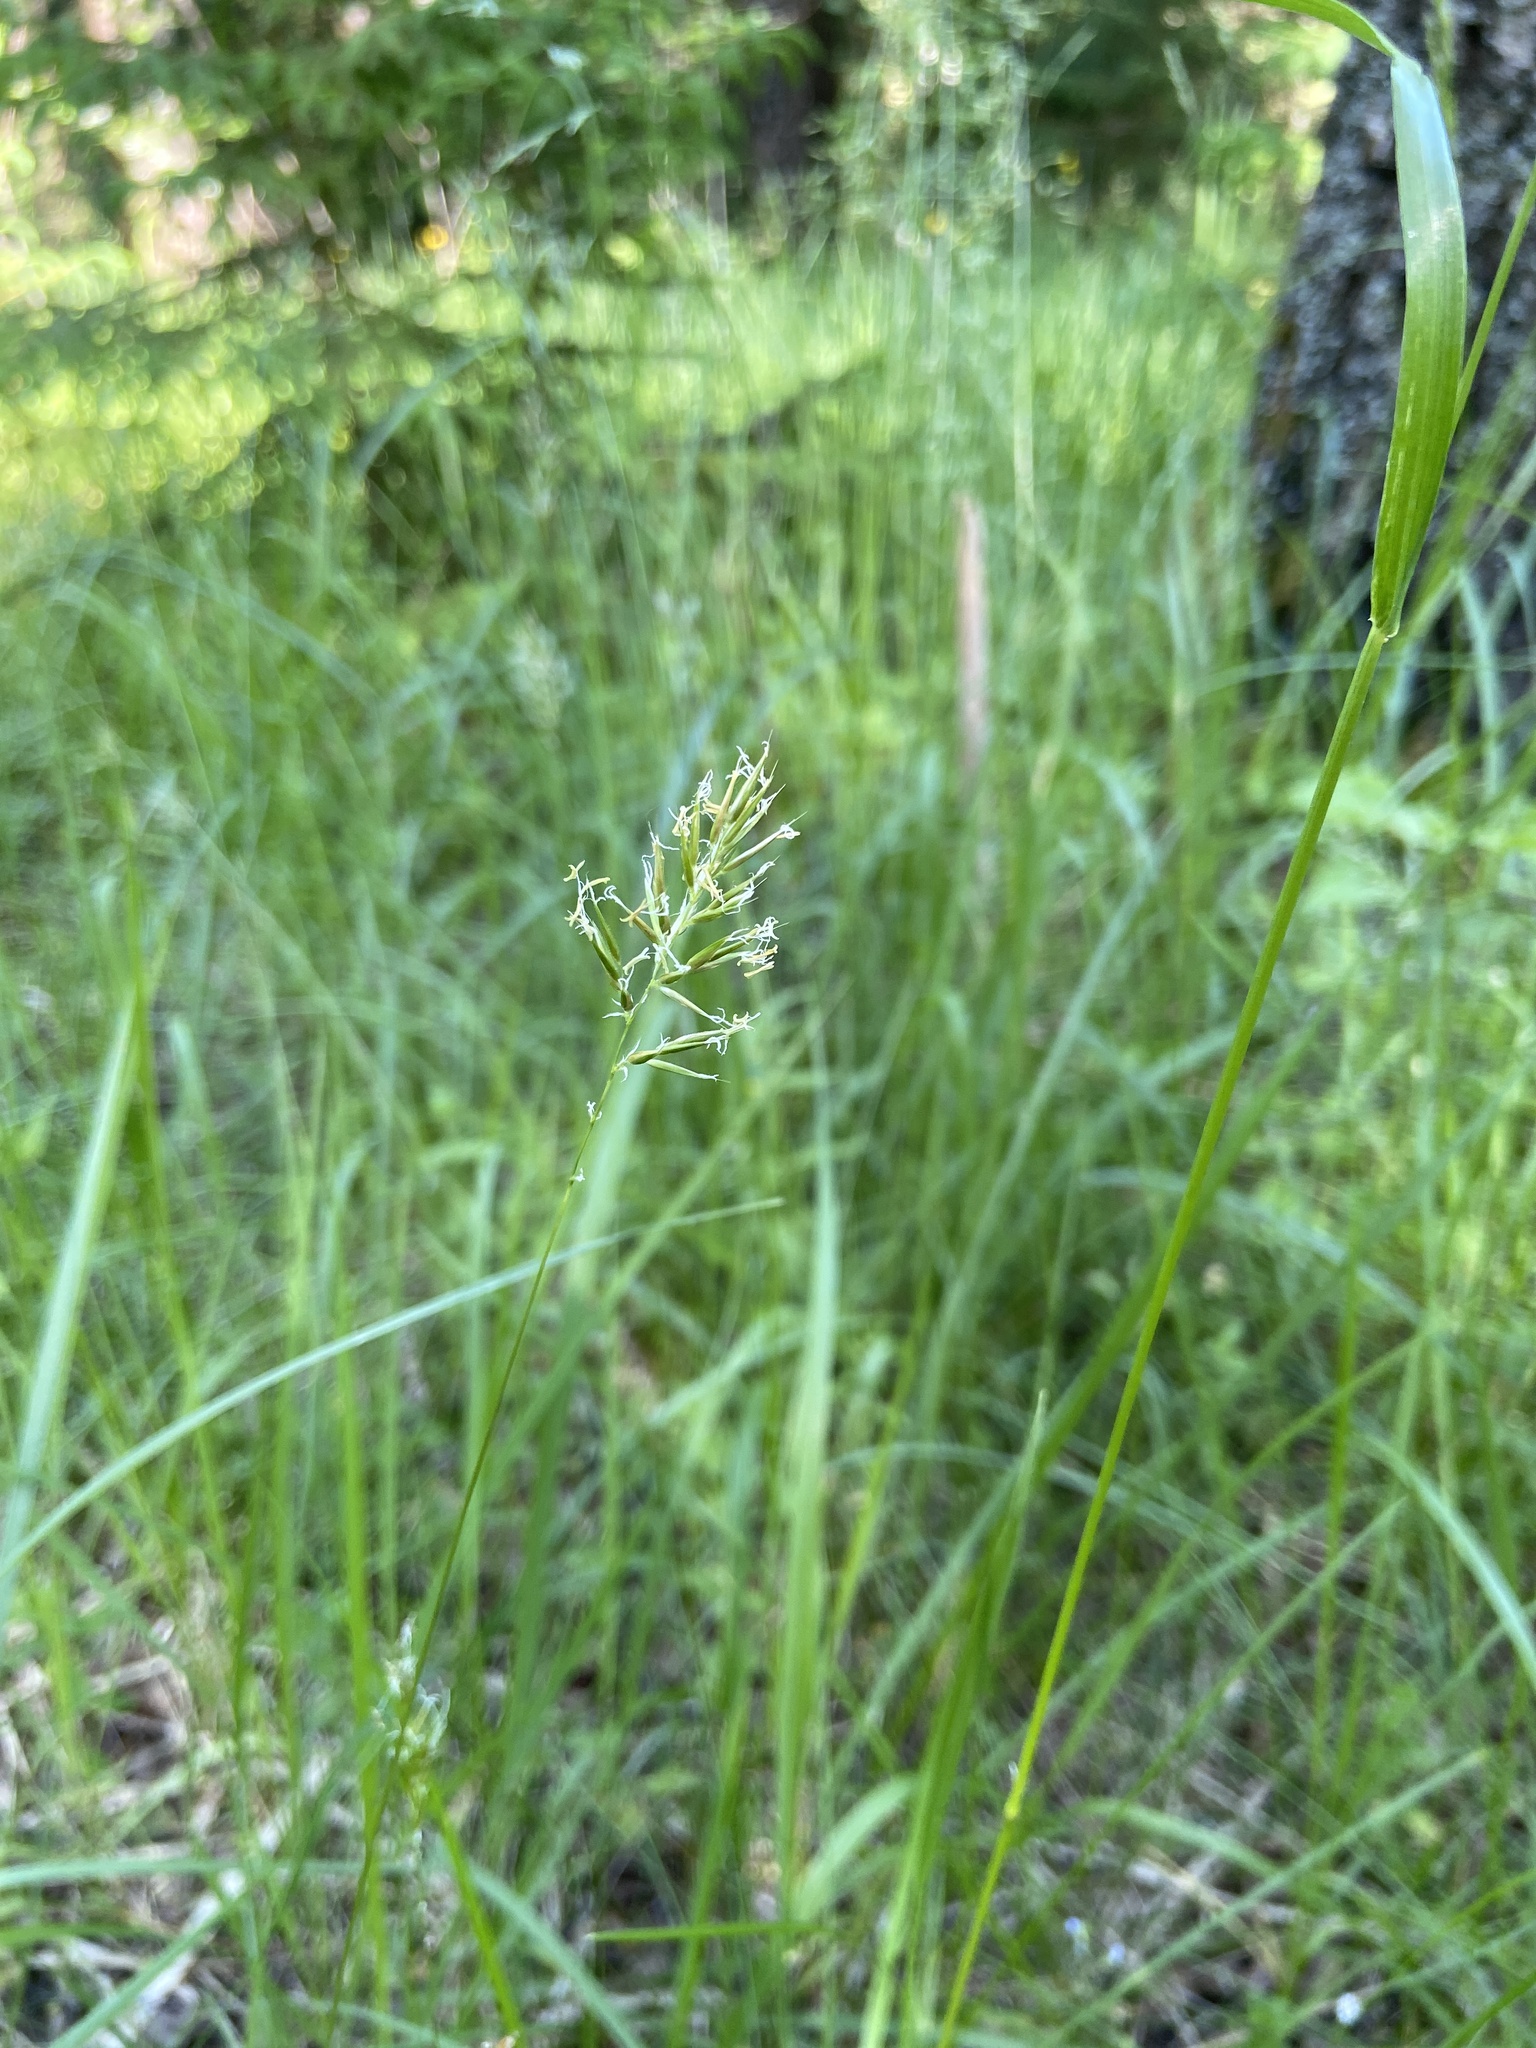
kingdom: Plantae
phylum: Tracheophyta
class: Liliopsida
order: Poales
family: Poaceae
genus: Anthoxanthum
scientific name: Anthoxanthum odoratum
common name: Sweet vernalgrass
